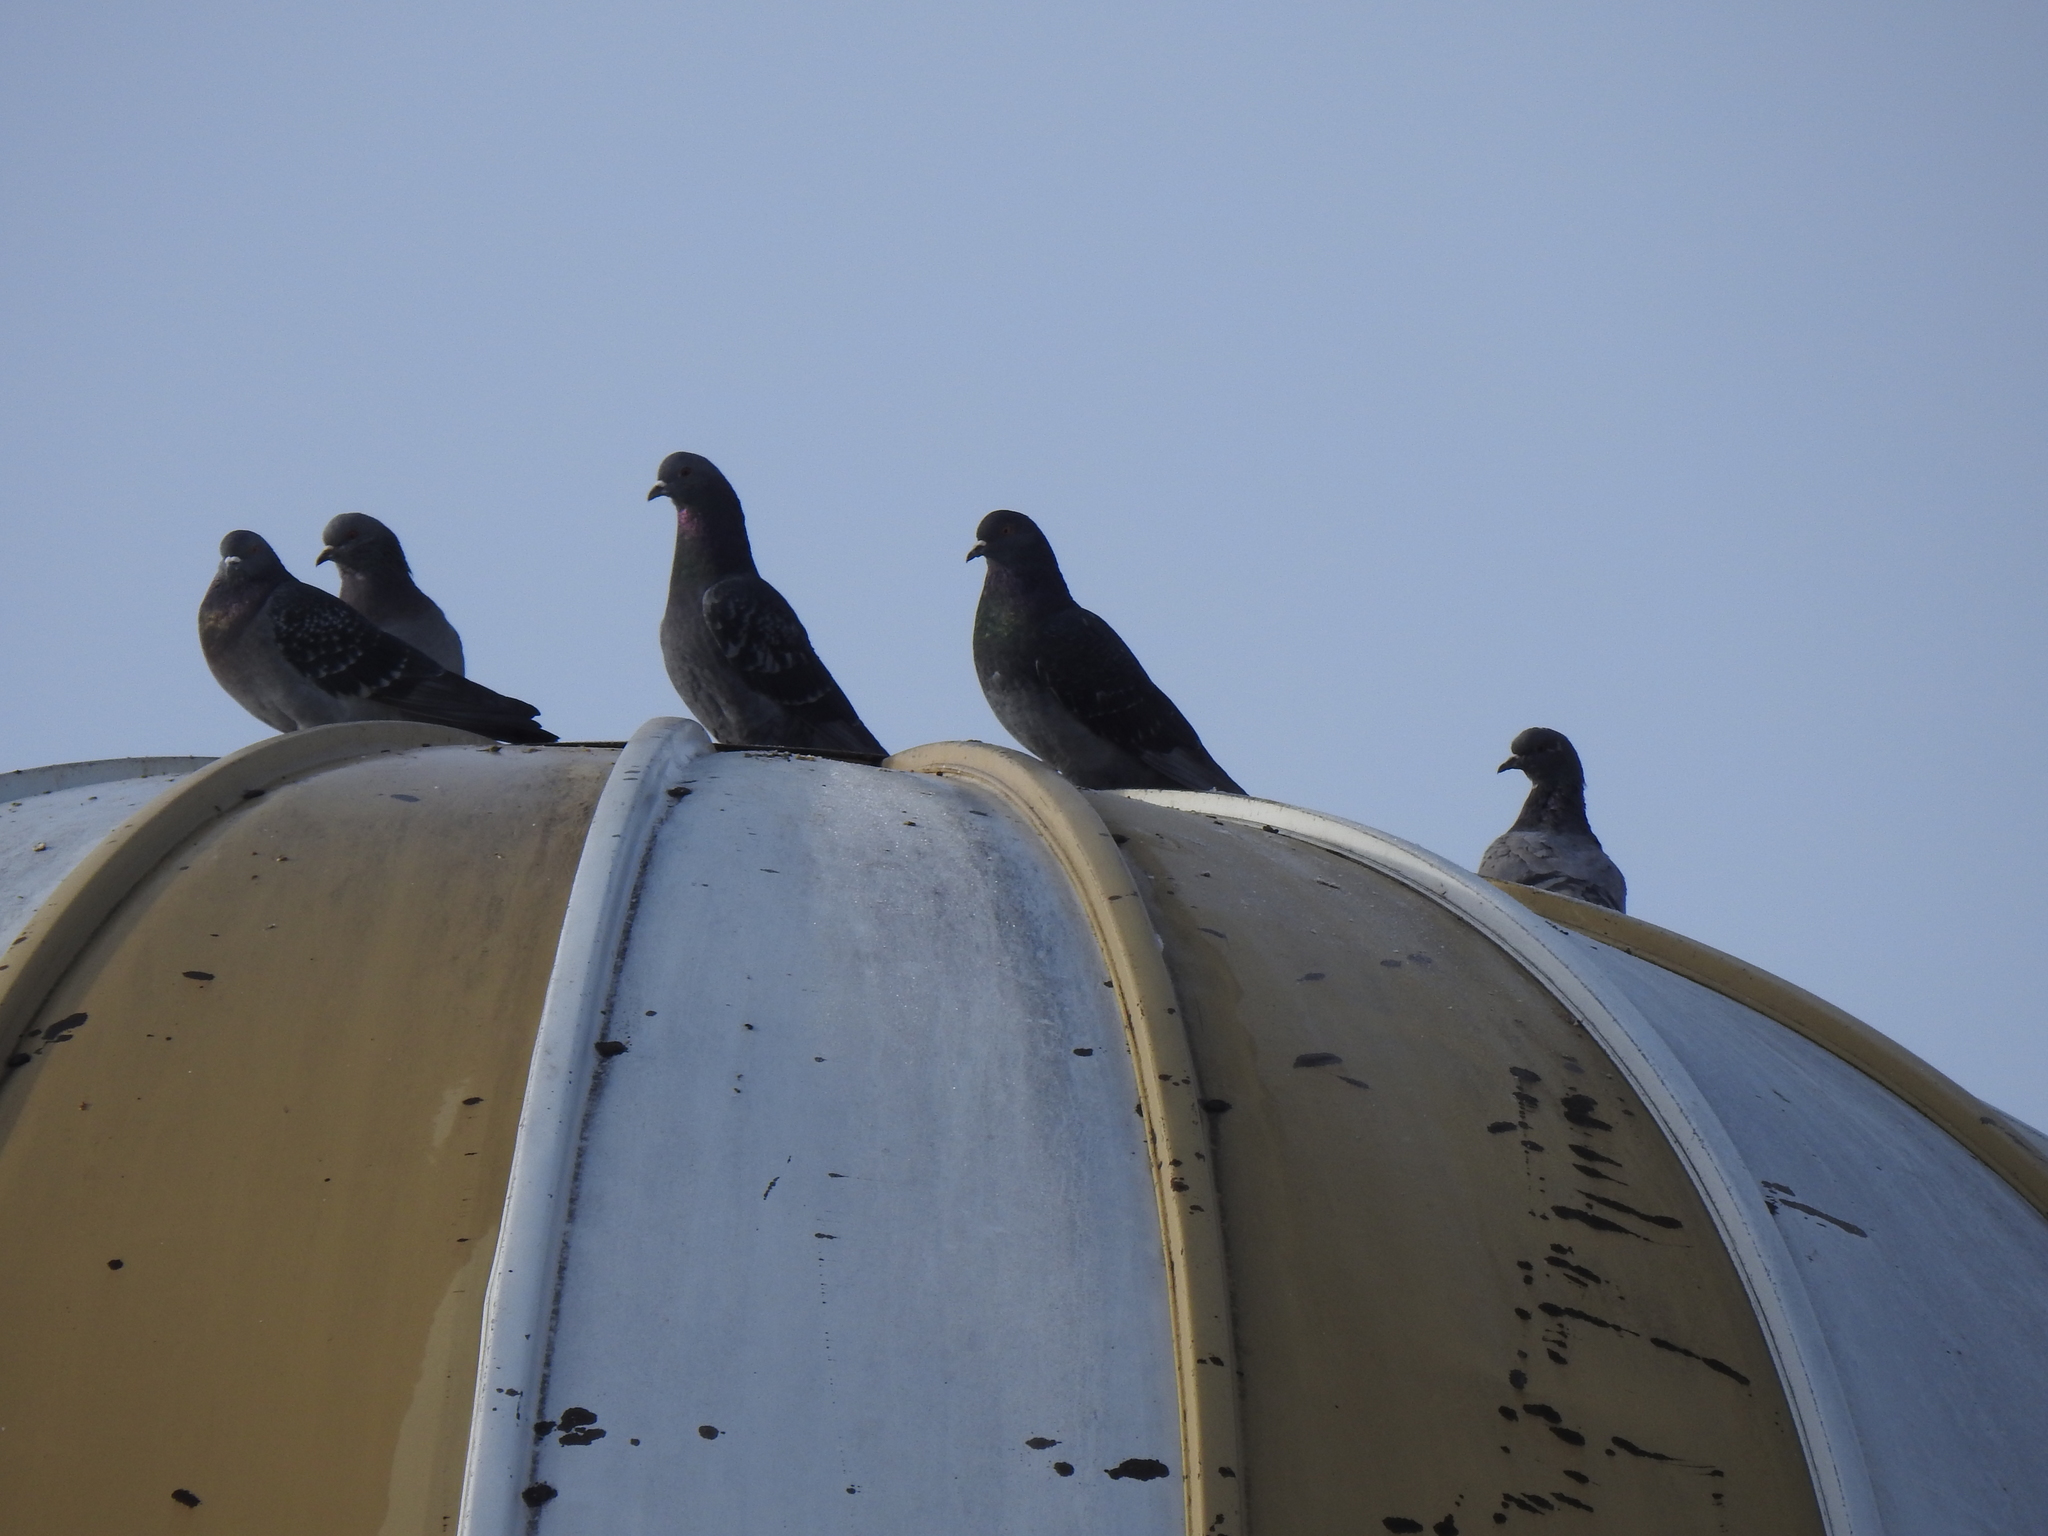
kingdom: Animalia
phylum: Chordata
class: Aves
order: Columbiformes
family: Columbidae
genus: Columba
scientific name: Columba livia
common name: Rock pigeon
